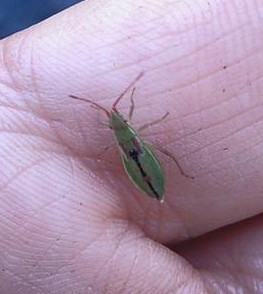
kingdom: Animalia
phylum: Arthropoda
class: Insecta
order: Hemiptera
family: Rhopalidae
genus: Myrmus
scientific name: Myrmus miriformis
